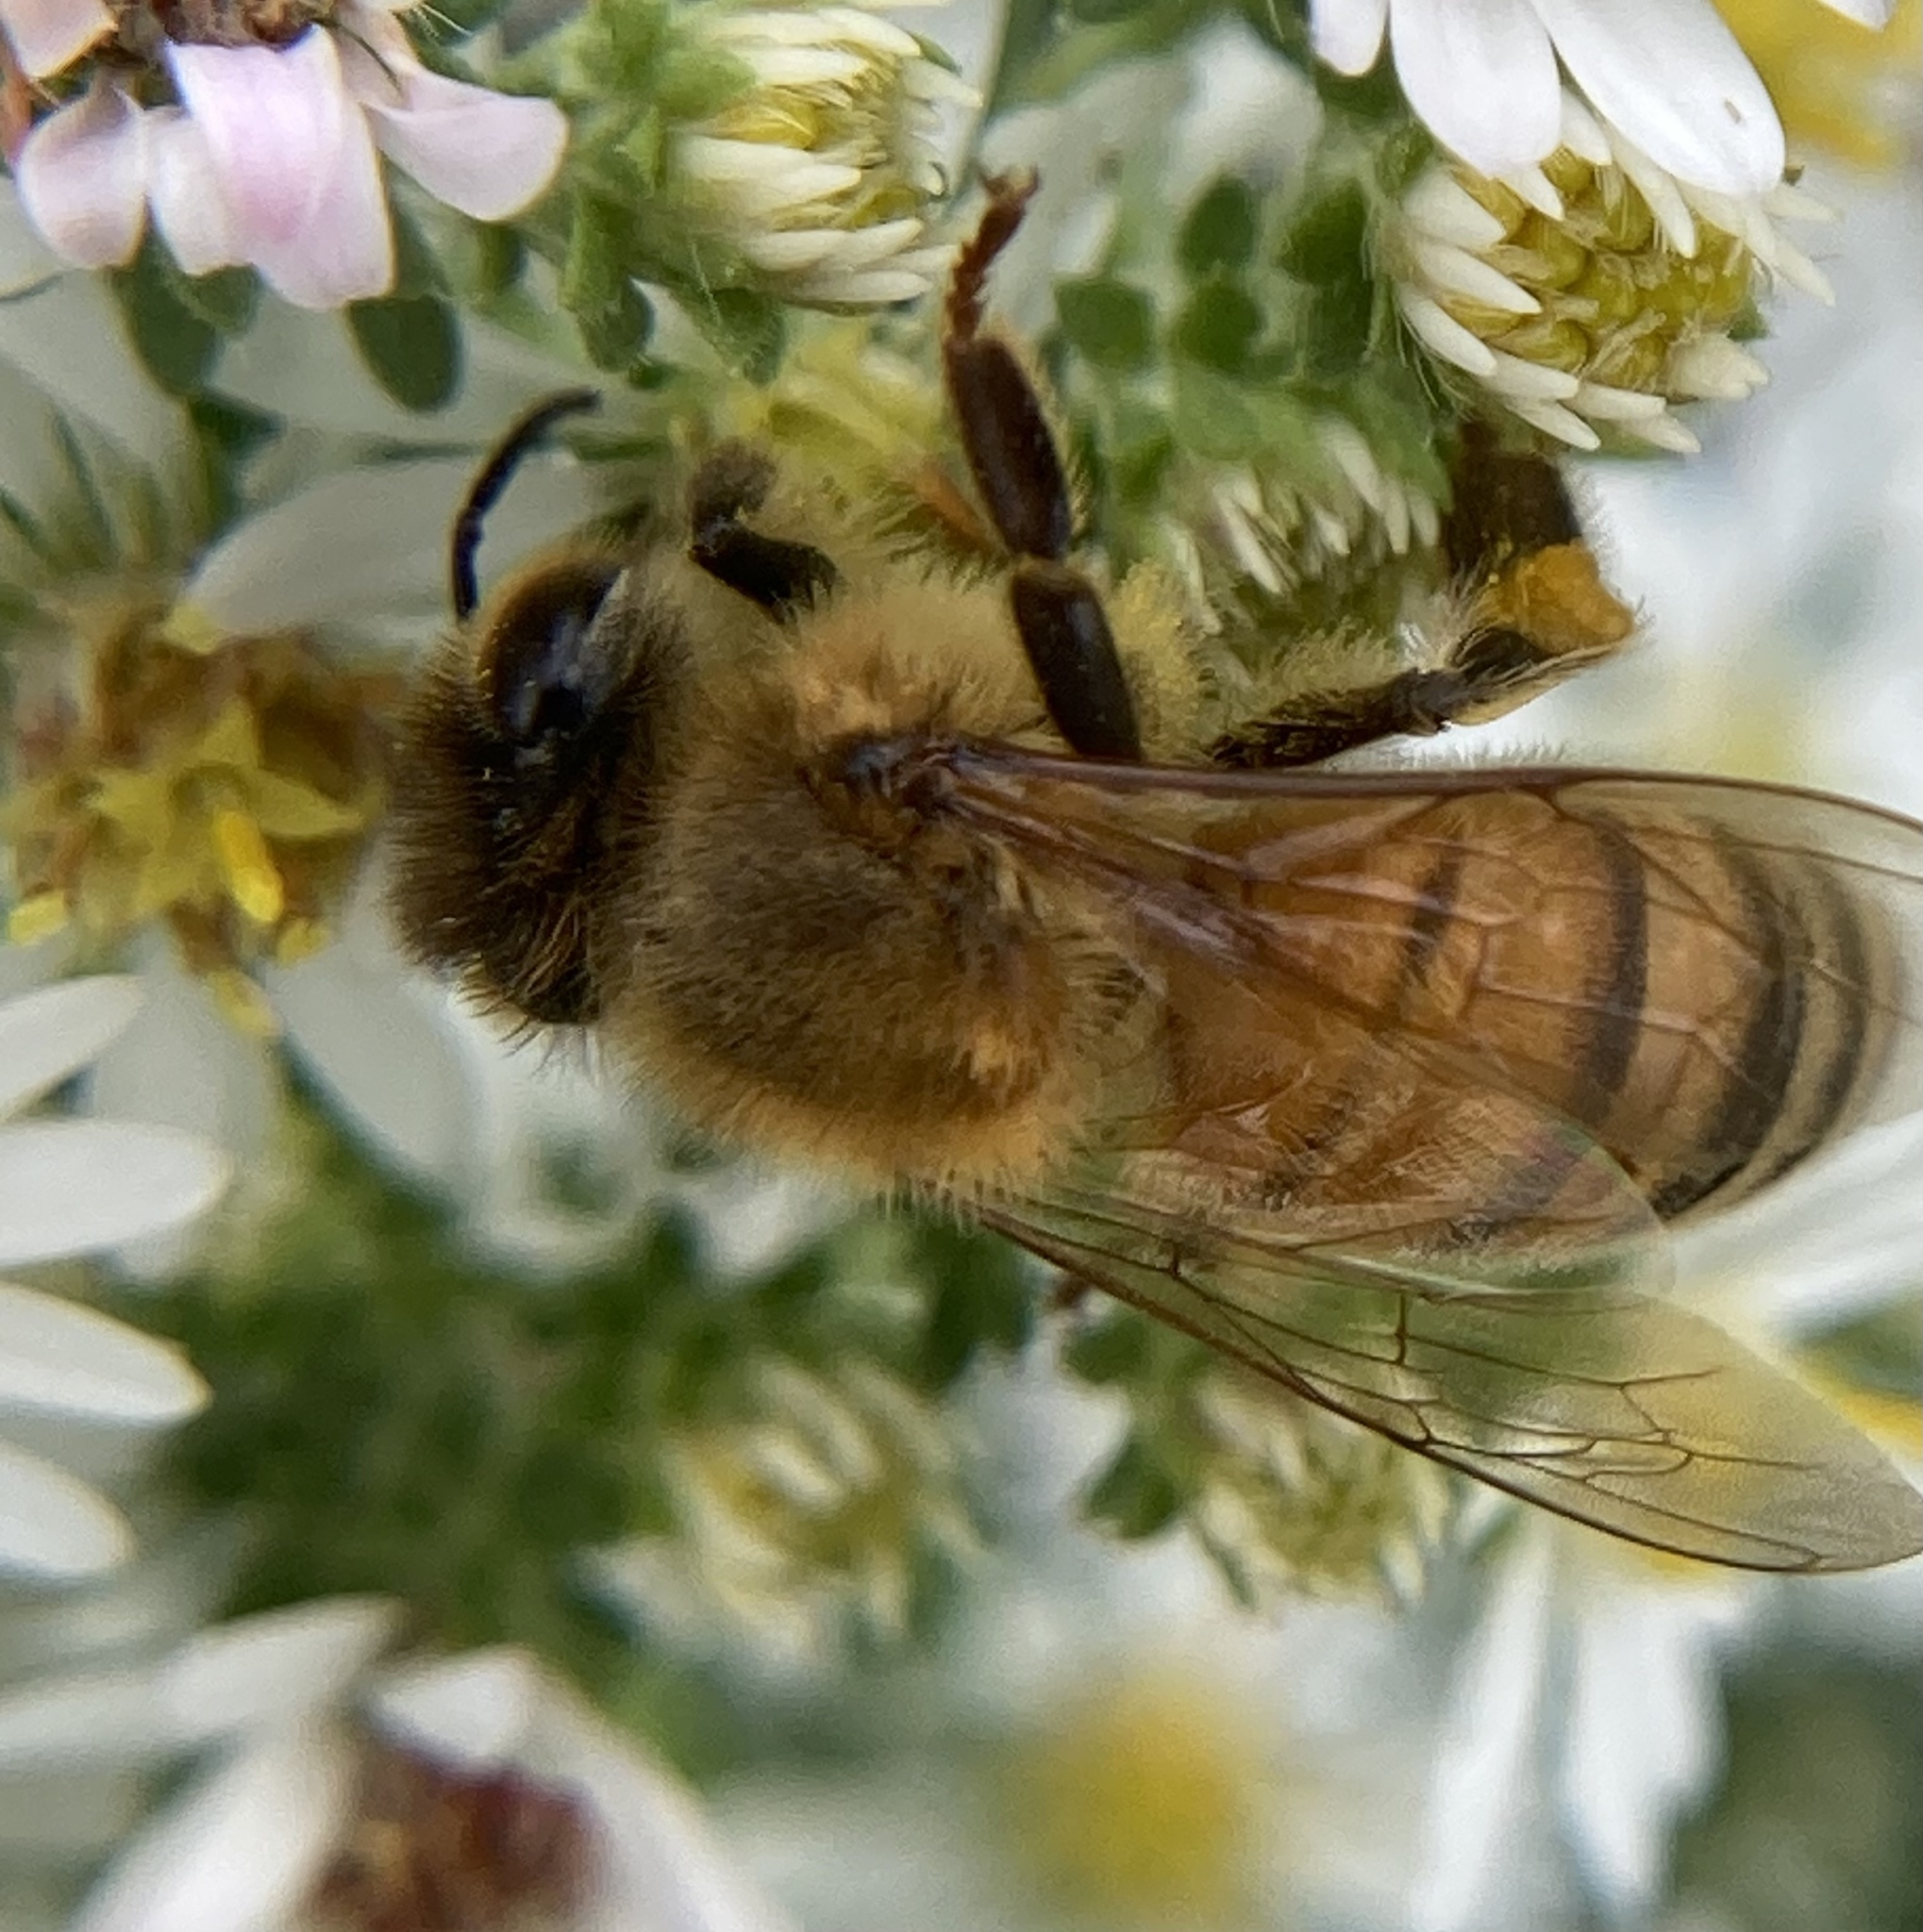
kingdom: Animalia
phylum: Arthropoda
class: Insecta
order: Hymenoptera
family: Apidae
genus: Apis
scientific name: Apis mellifera
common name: Honey bee
